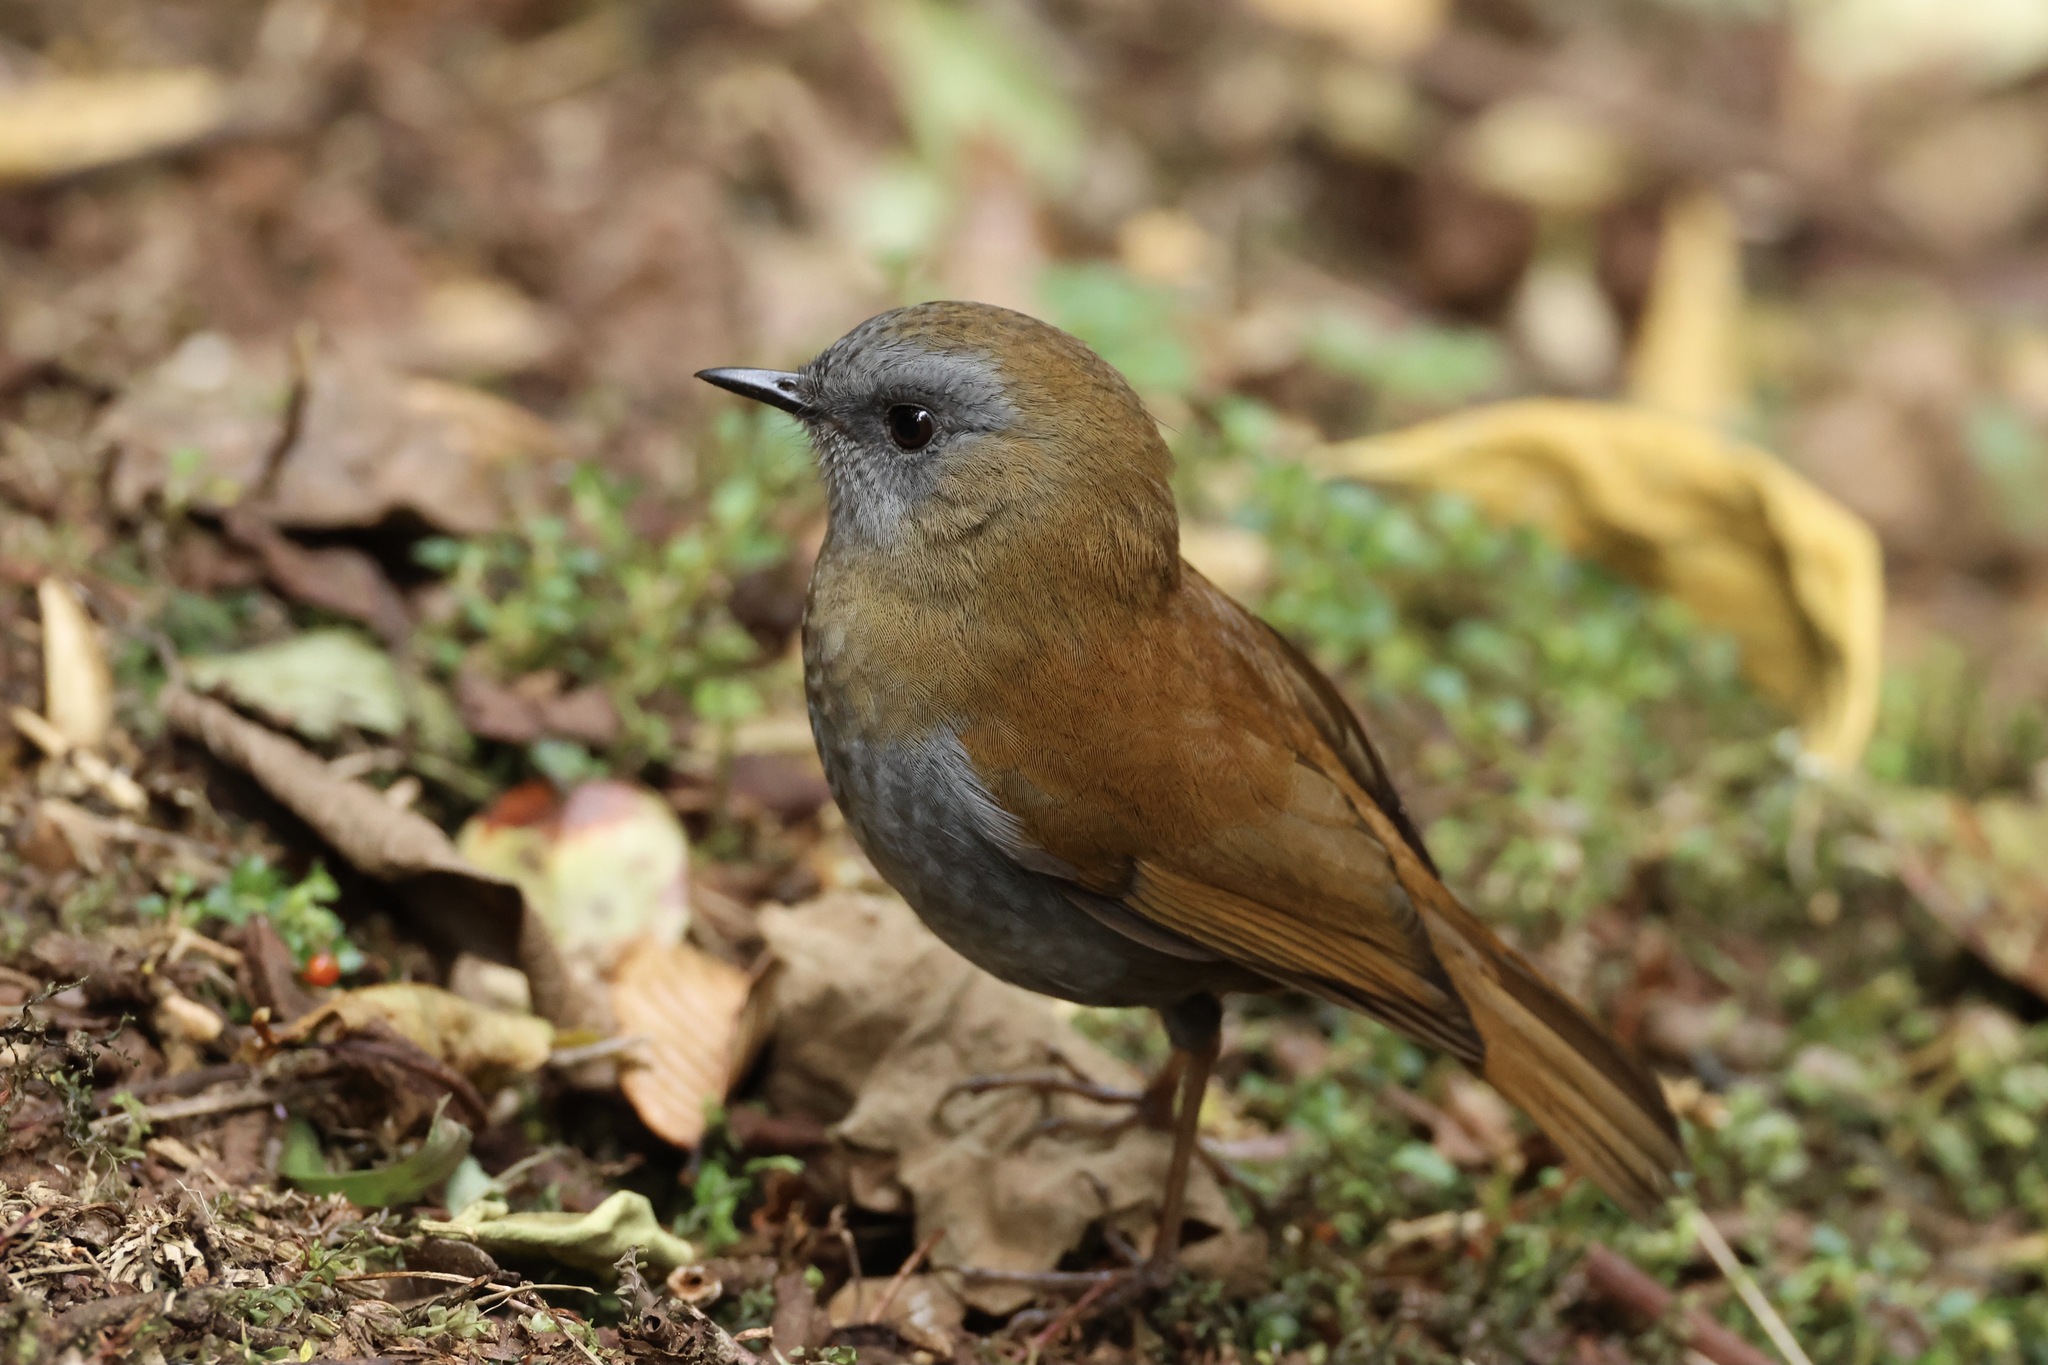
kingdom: Animalia
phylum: Chordata
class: Aves
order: Passeriformes
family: Turdidae
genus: Catharus
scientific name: Catharus gracilirostris
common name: Black-billed nightingale-thrush
